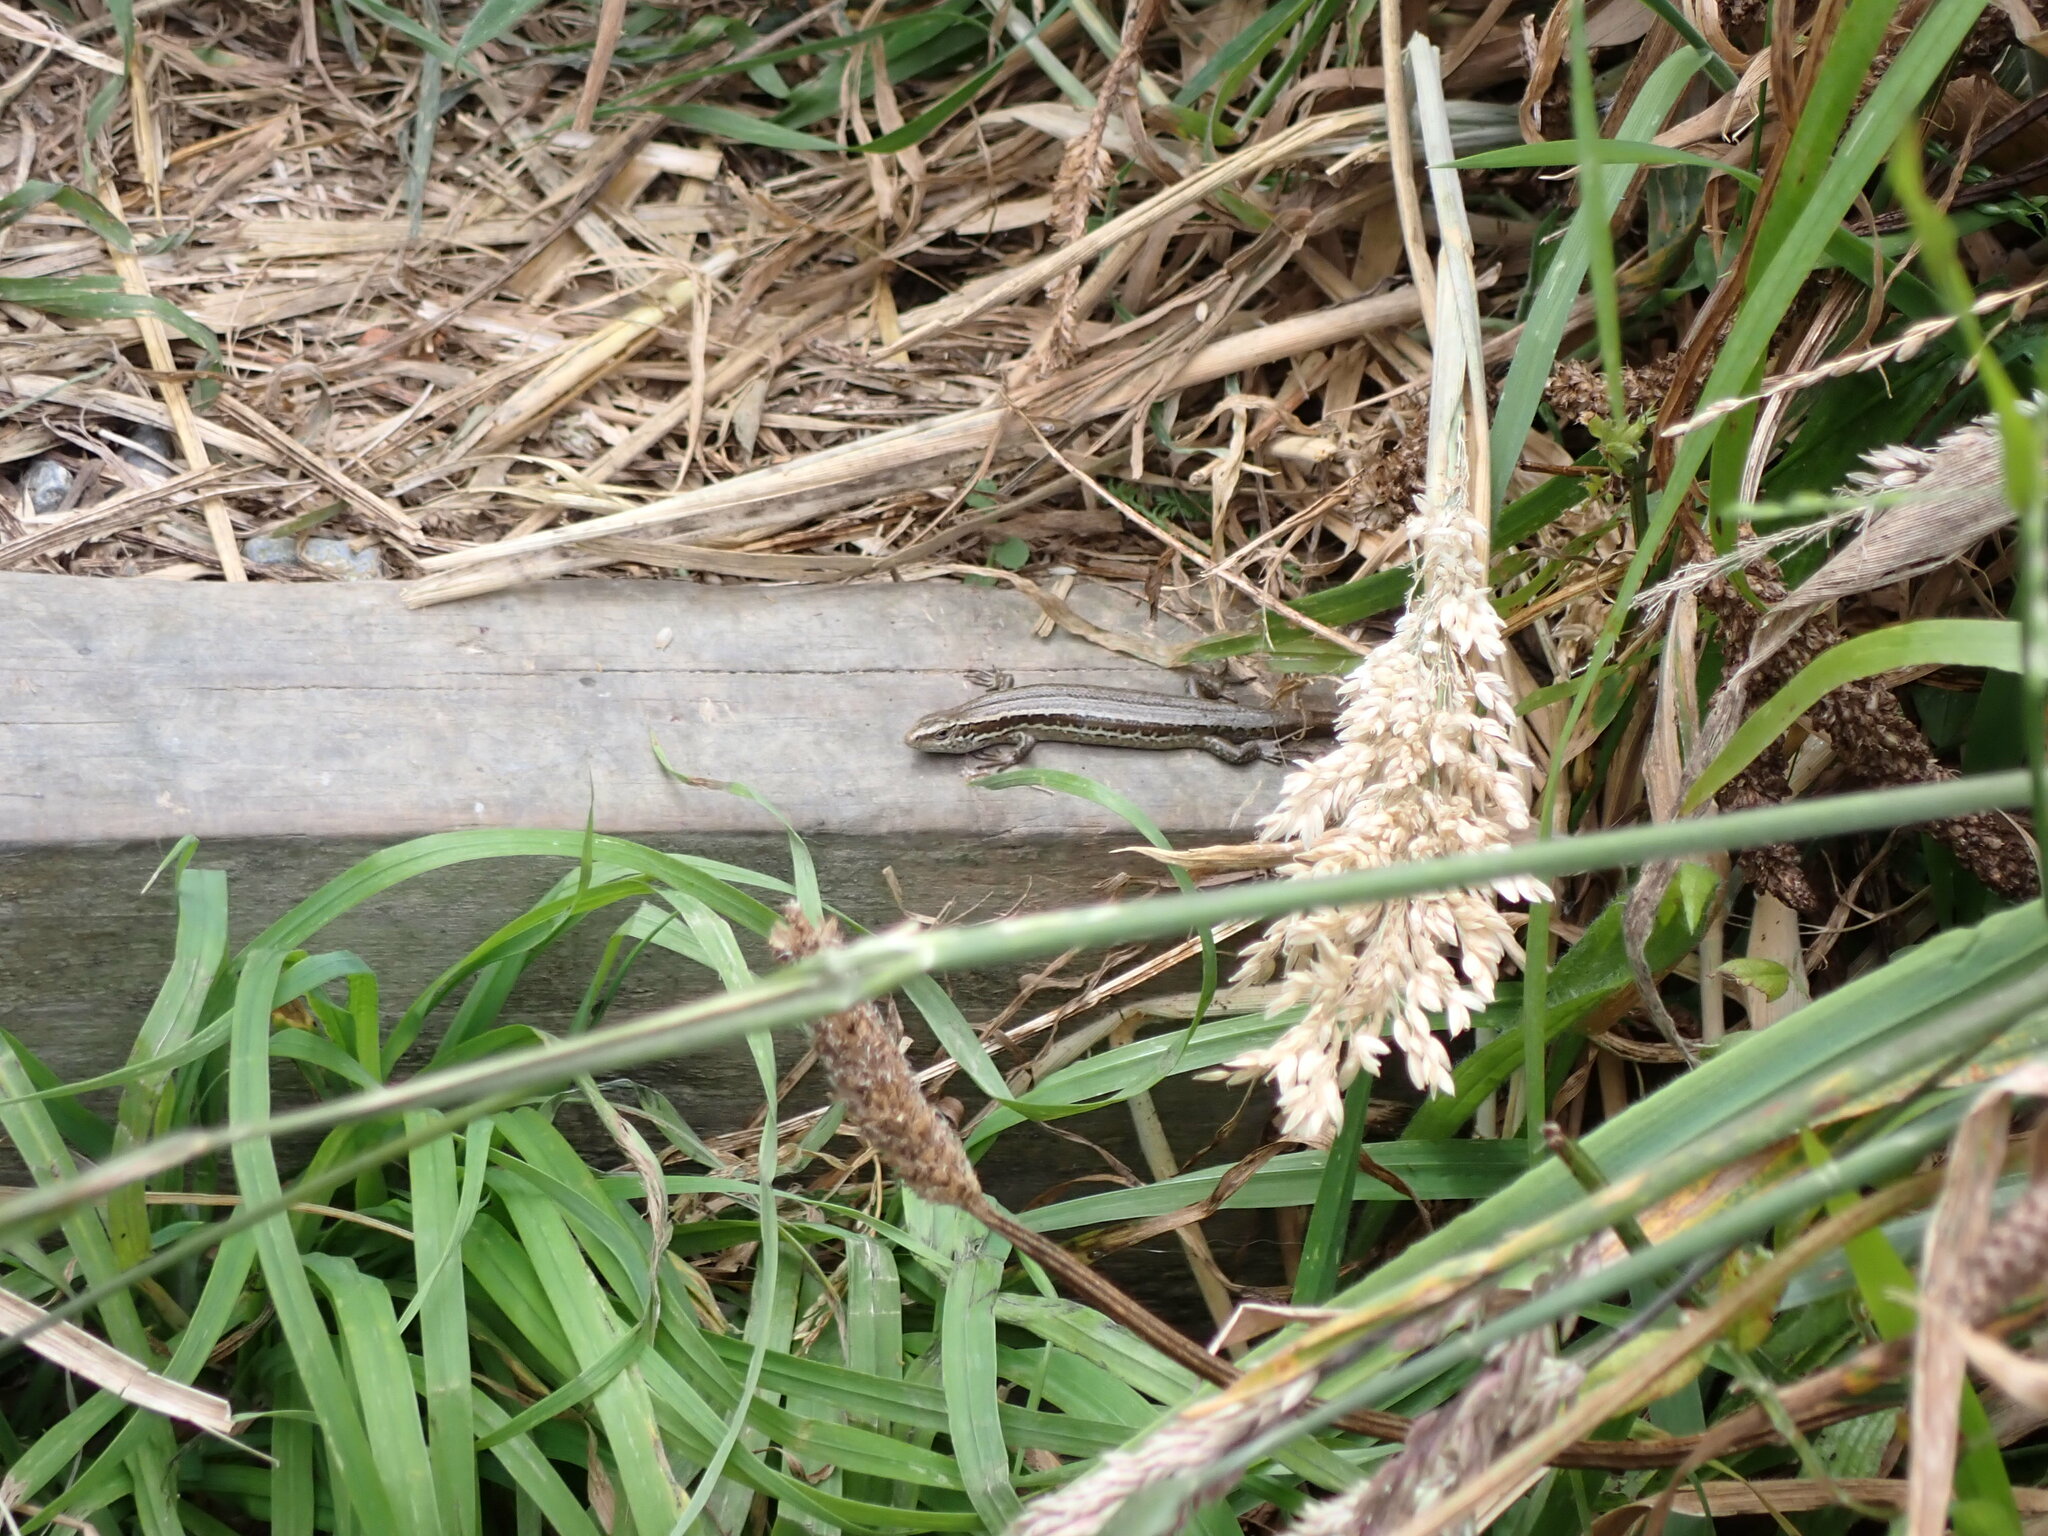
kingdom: Plantae
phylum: Tracheophyta
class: Liliopsida
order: Poales
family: Poaceae
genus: Holcus
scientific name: Holcus lanatus
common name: Yorkshire-fog
